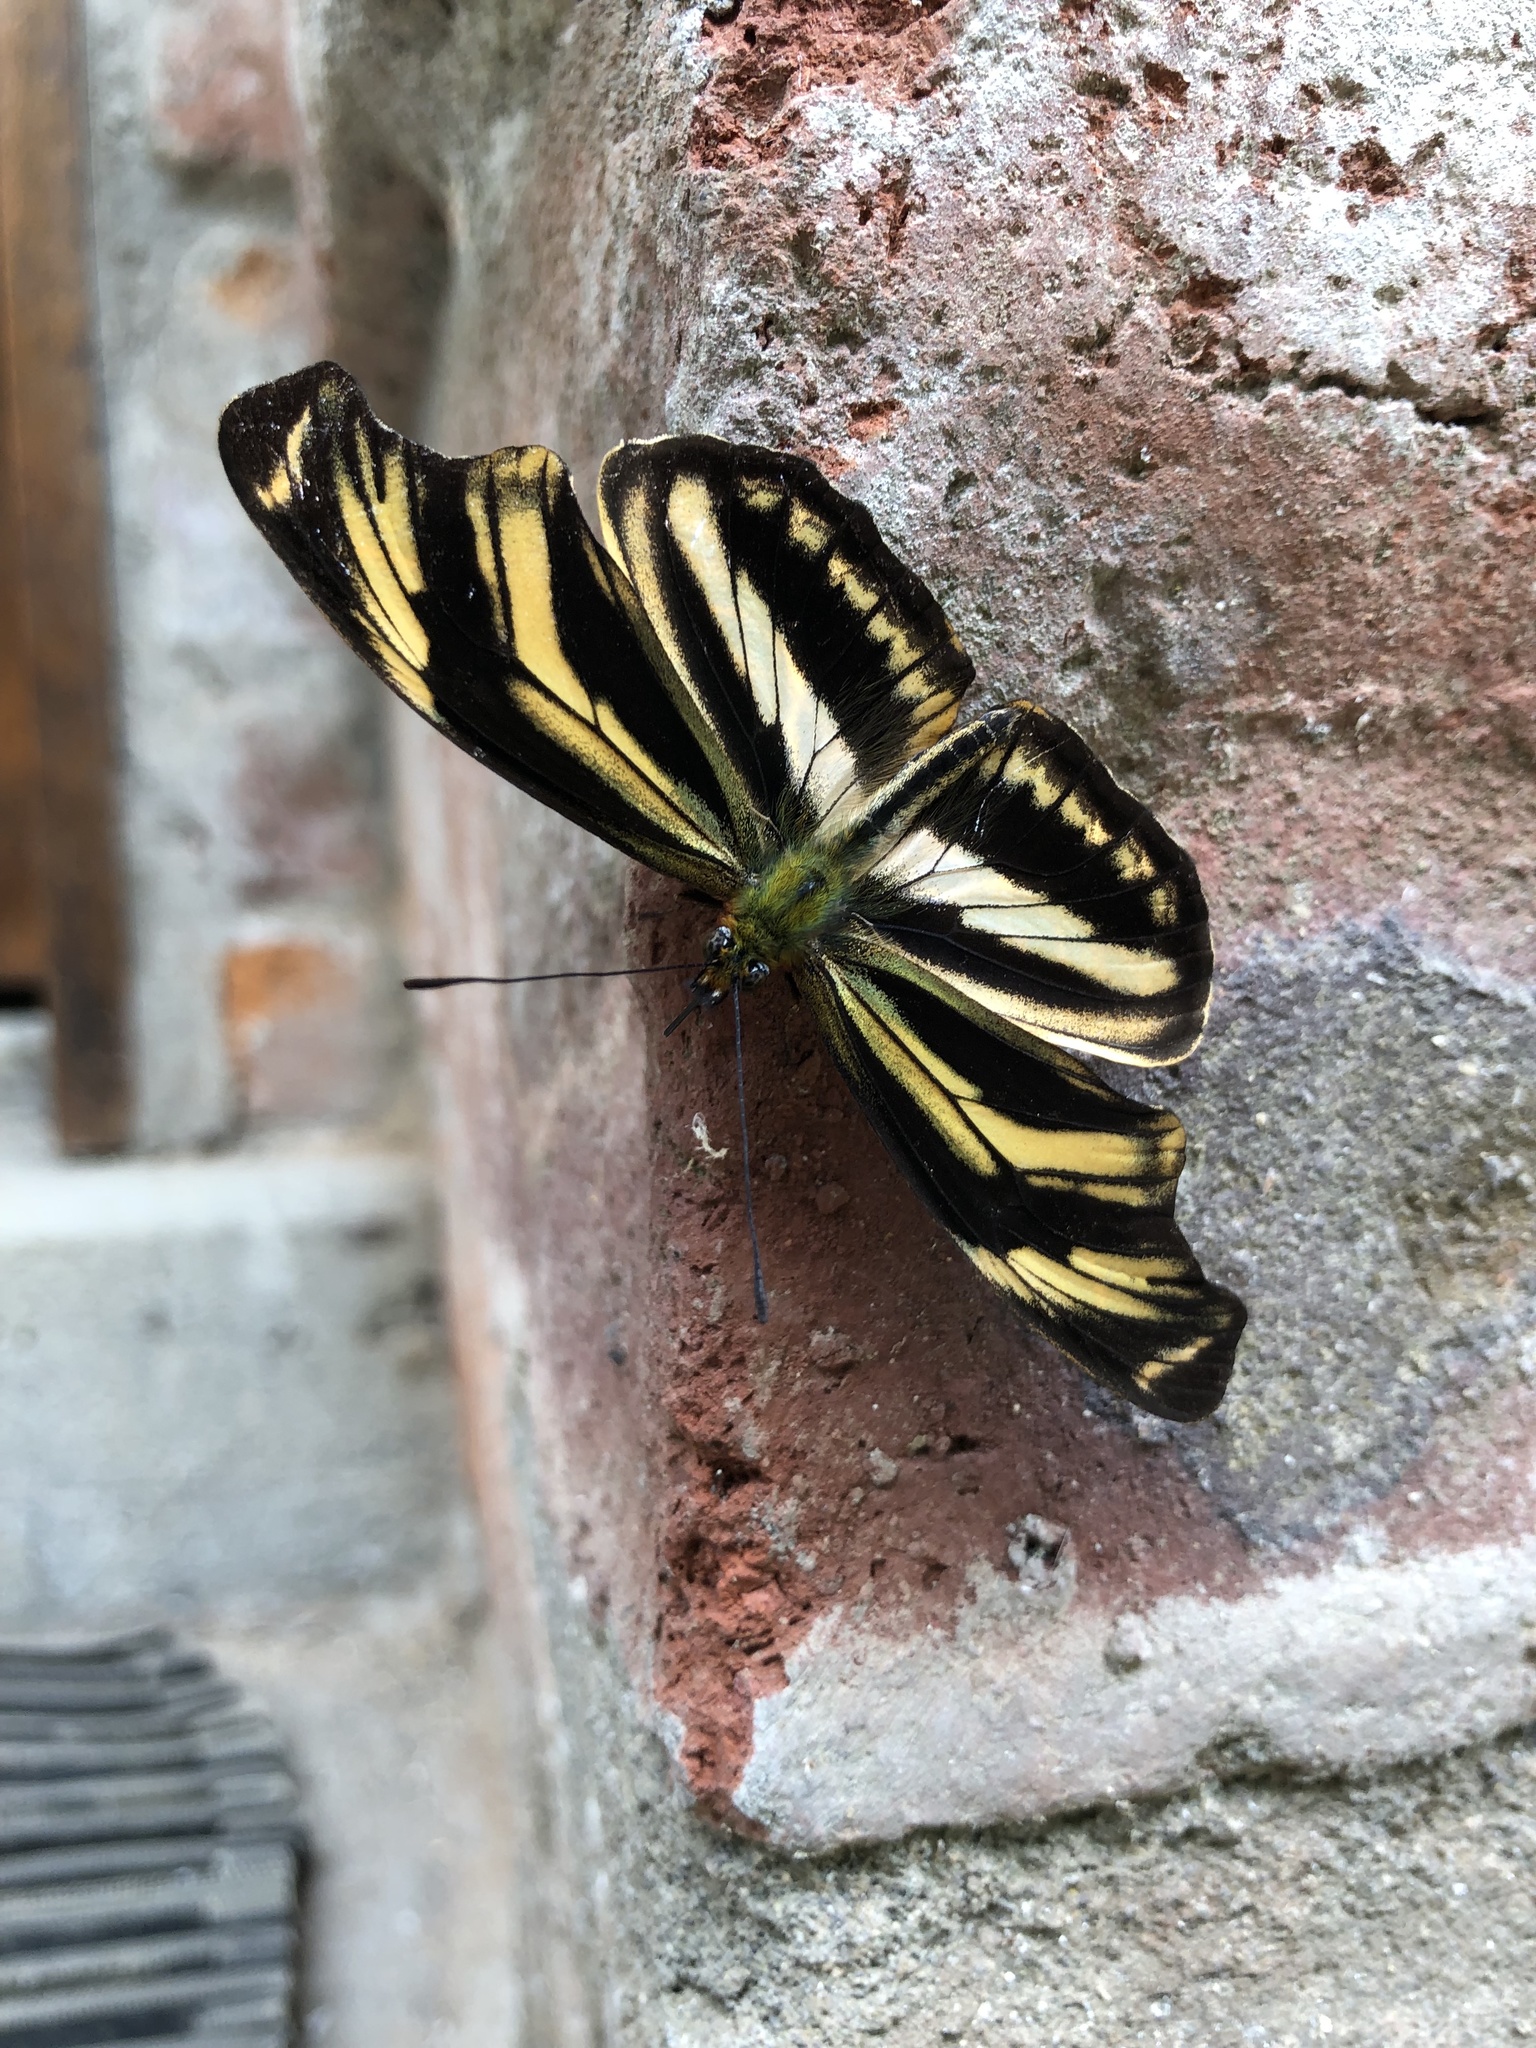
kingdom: Animalia
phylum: Arthropoda
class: Insecta
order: Lepidoptera
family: Nymphalidae
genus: Podotricha
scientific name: Podotricha judith
